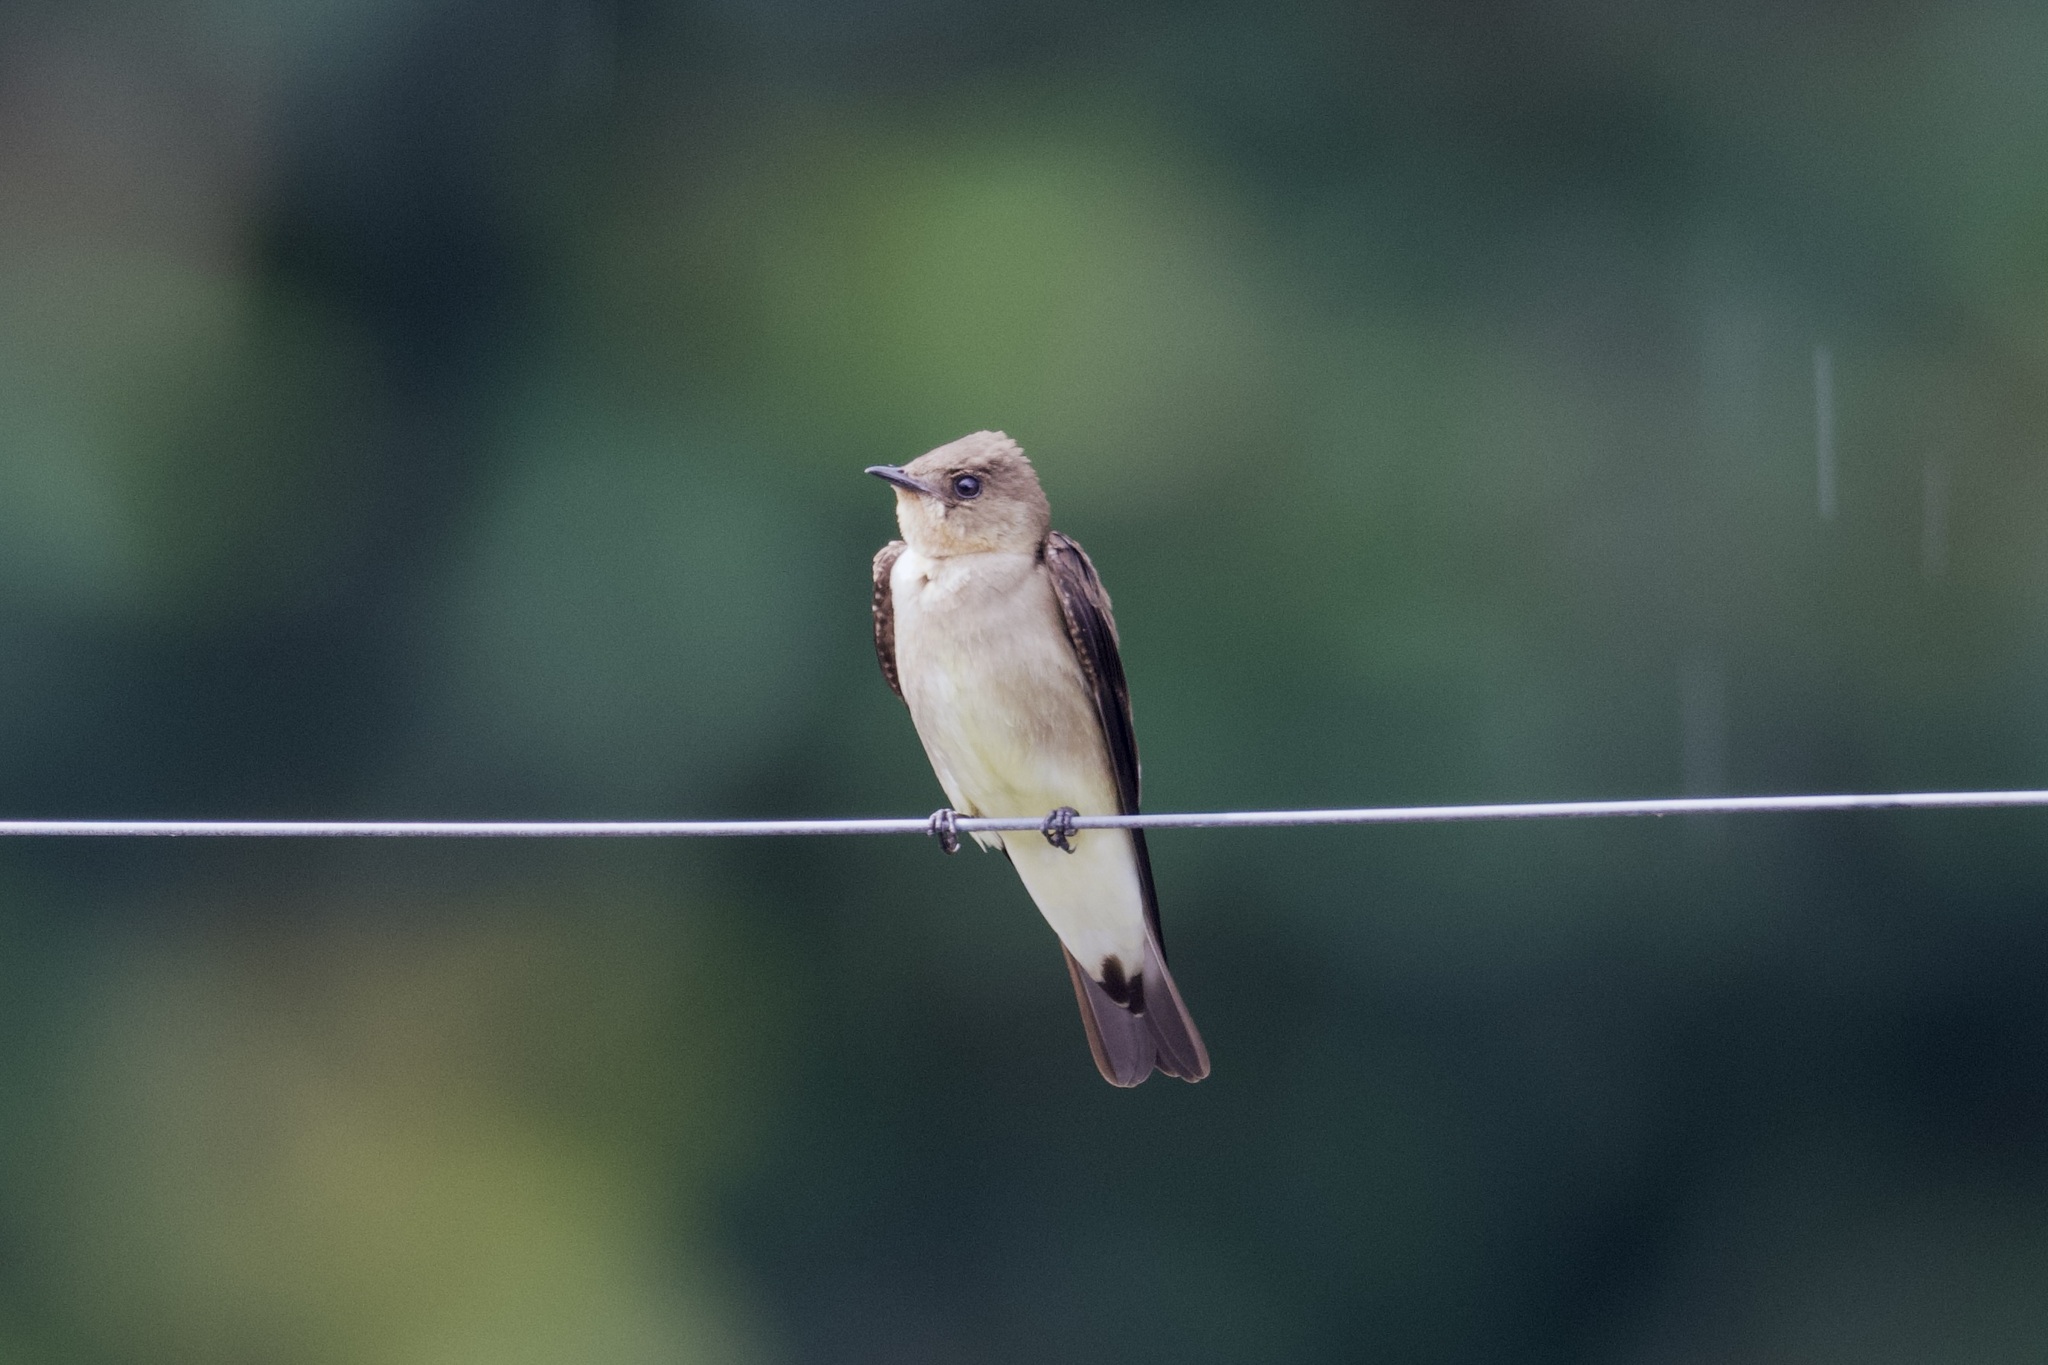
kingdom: Animalia
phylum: Chordata
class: Aves
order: Passeriformes
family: Hirundinidae
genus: Stelgidopteryx
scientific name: Stelgidopteryx ruficollis
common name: Southern rough-winged swallow
